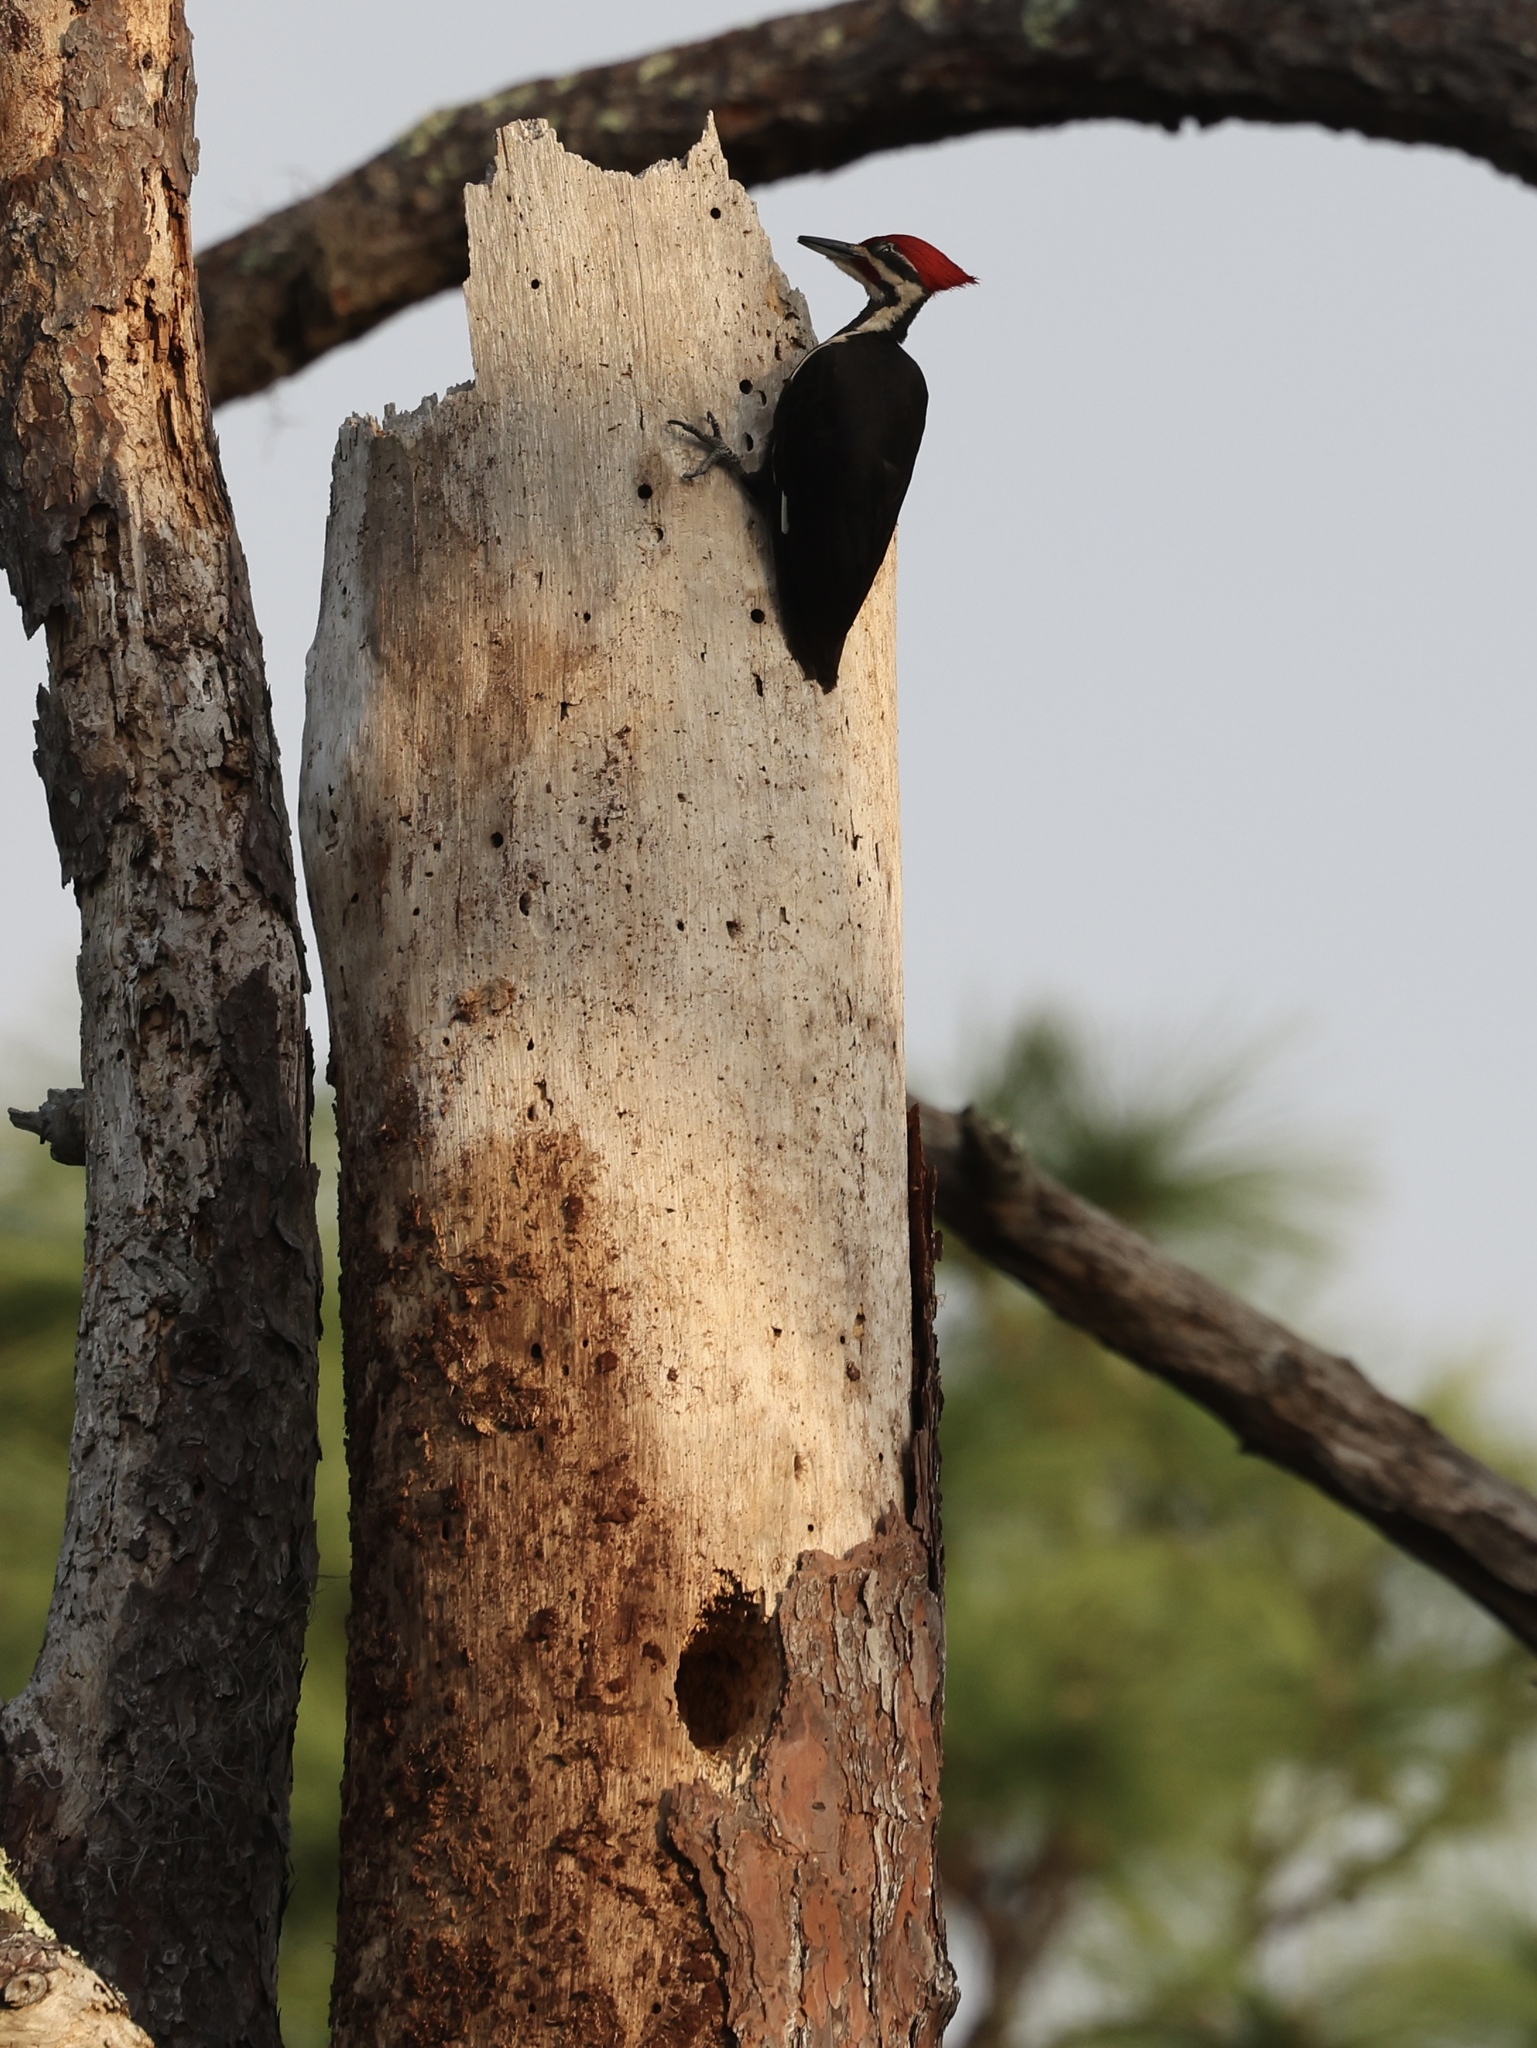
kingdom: Animalia
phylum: Chordata
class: Aves
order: Piciformes
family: Picidae
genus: Dryocopus
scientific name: Dryocopus pileatus
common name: Pileated woodpecker
